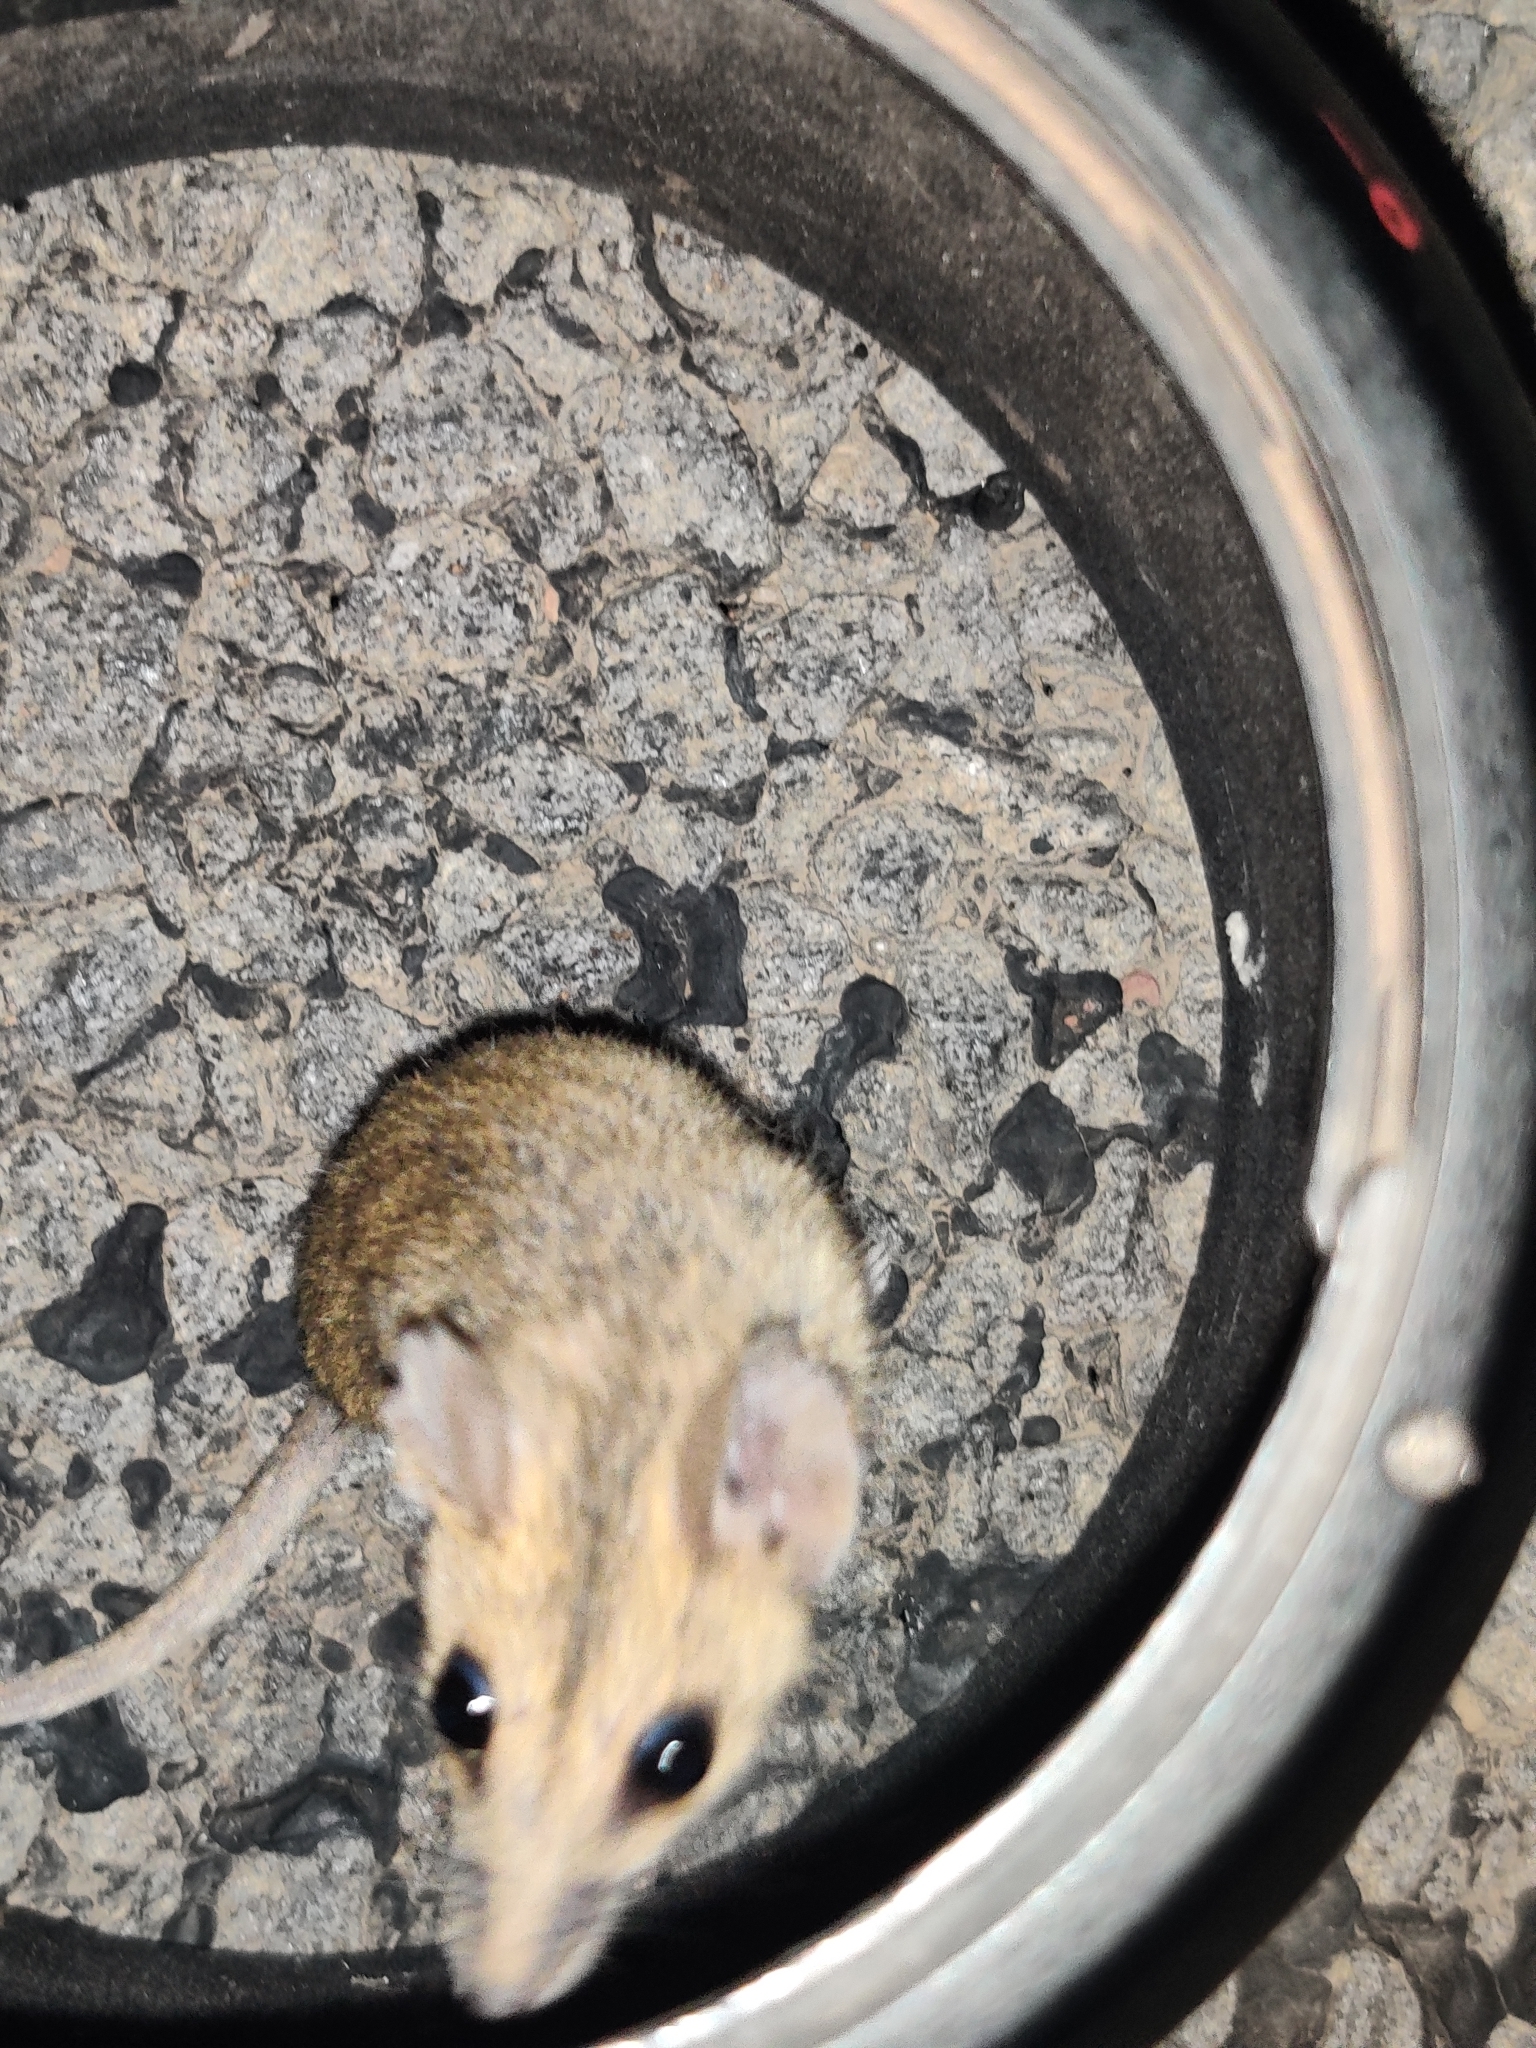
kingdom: Animalia
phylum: Chordata
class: Mammalia
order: Dasyuromorphia
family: Dasyuridae
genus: Sminthopsis
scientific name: Sminthopsis macroura
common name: Stripe-faced dunnart
